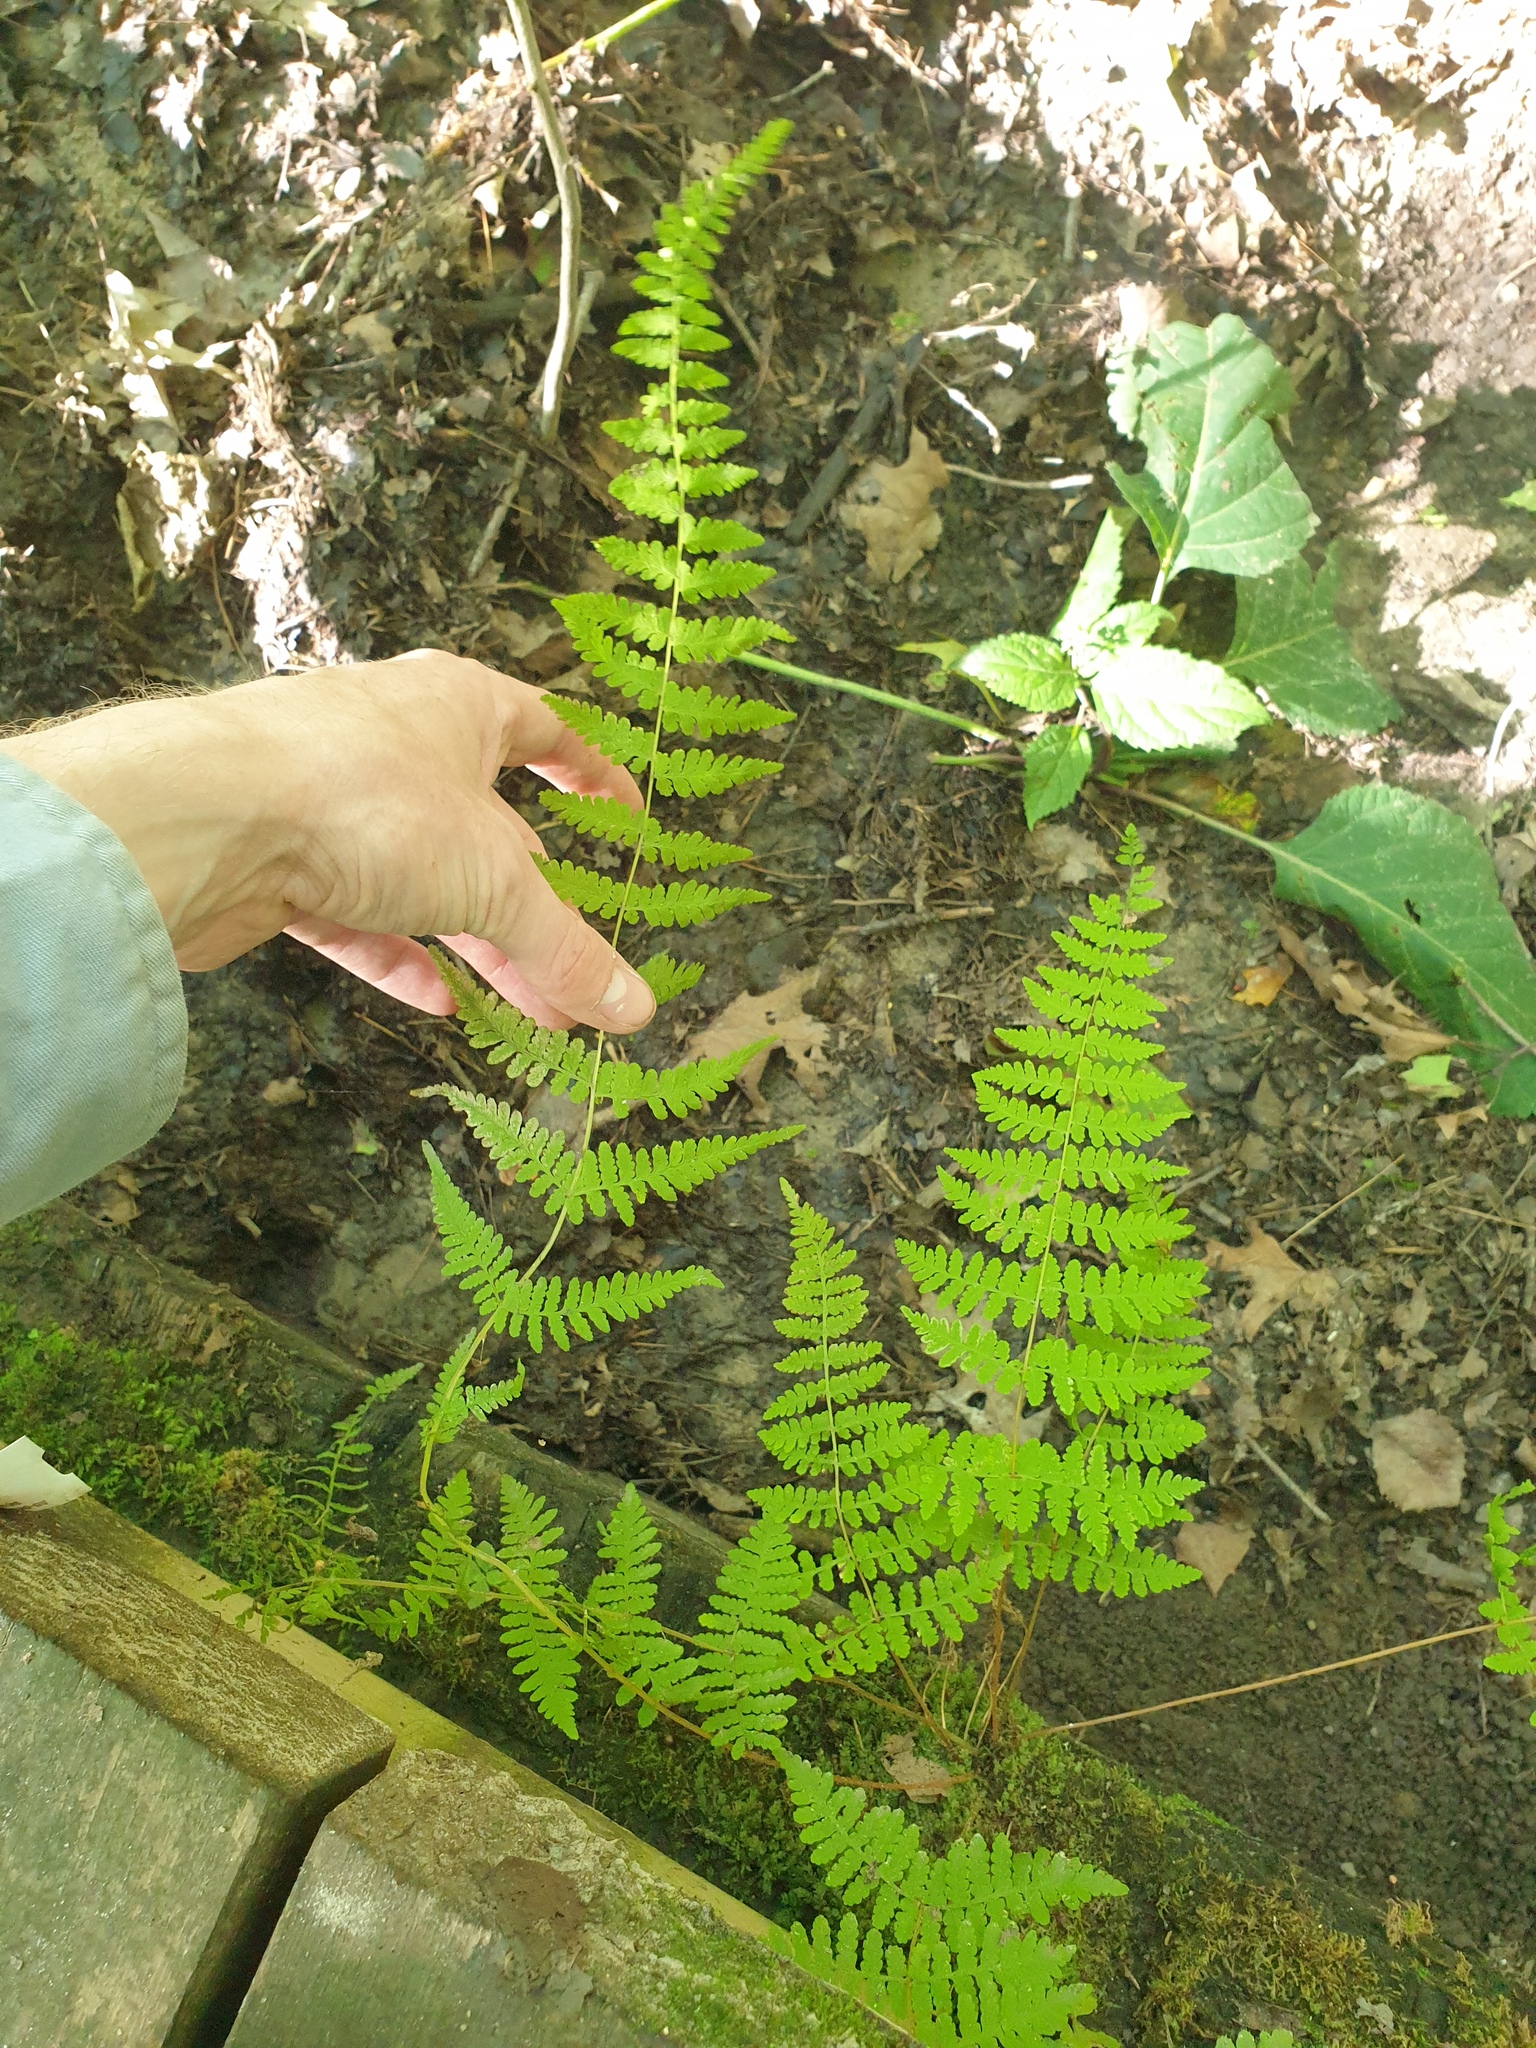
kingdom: Plantae
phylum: Tracheophyta
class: Polypodiopsida
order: Polypodiales
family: Cystopteridaceae
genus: Cystopteris
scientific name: Cystopteris bulbifera
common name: Bulblet bladder fern
